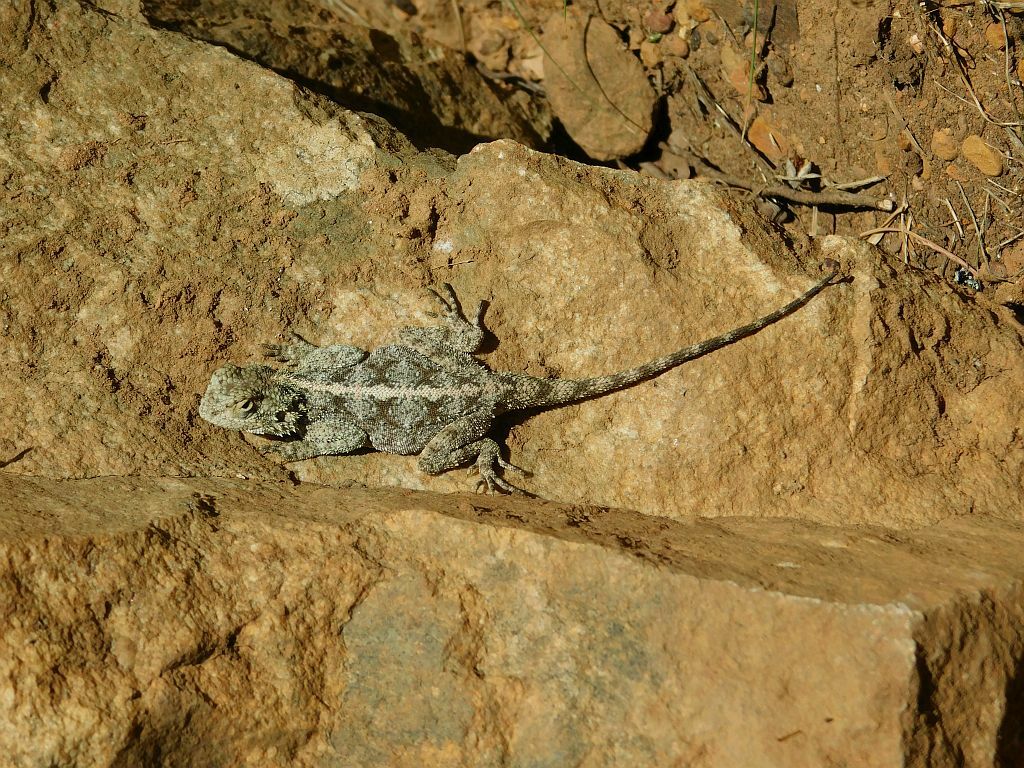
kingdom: Animalia
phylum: Chordata
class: Squamata
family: Agamidae
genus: Agama
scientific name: Agama atra
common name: Southern african rock agama
